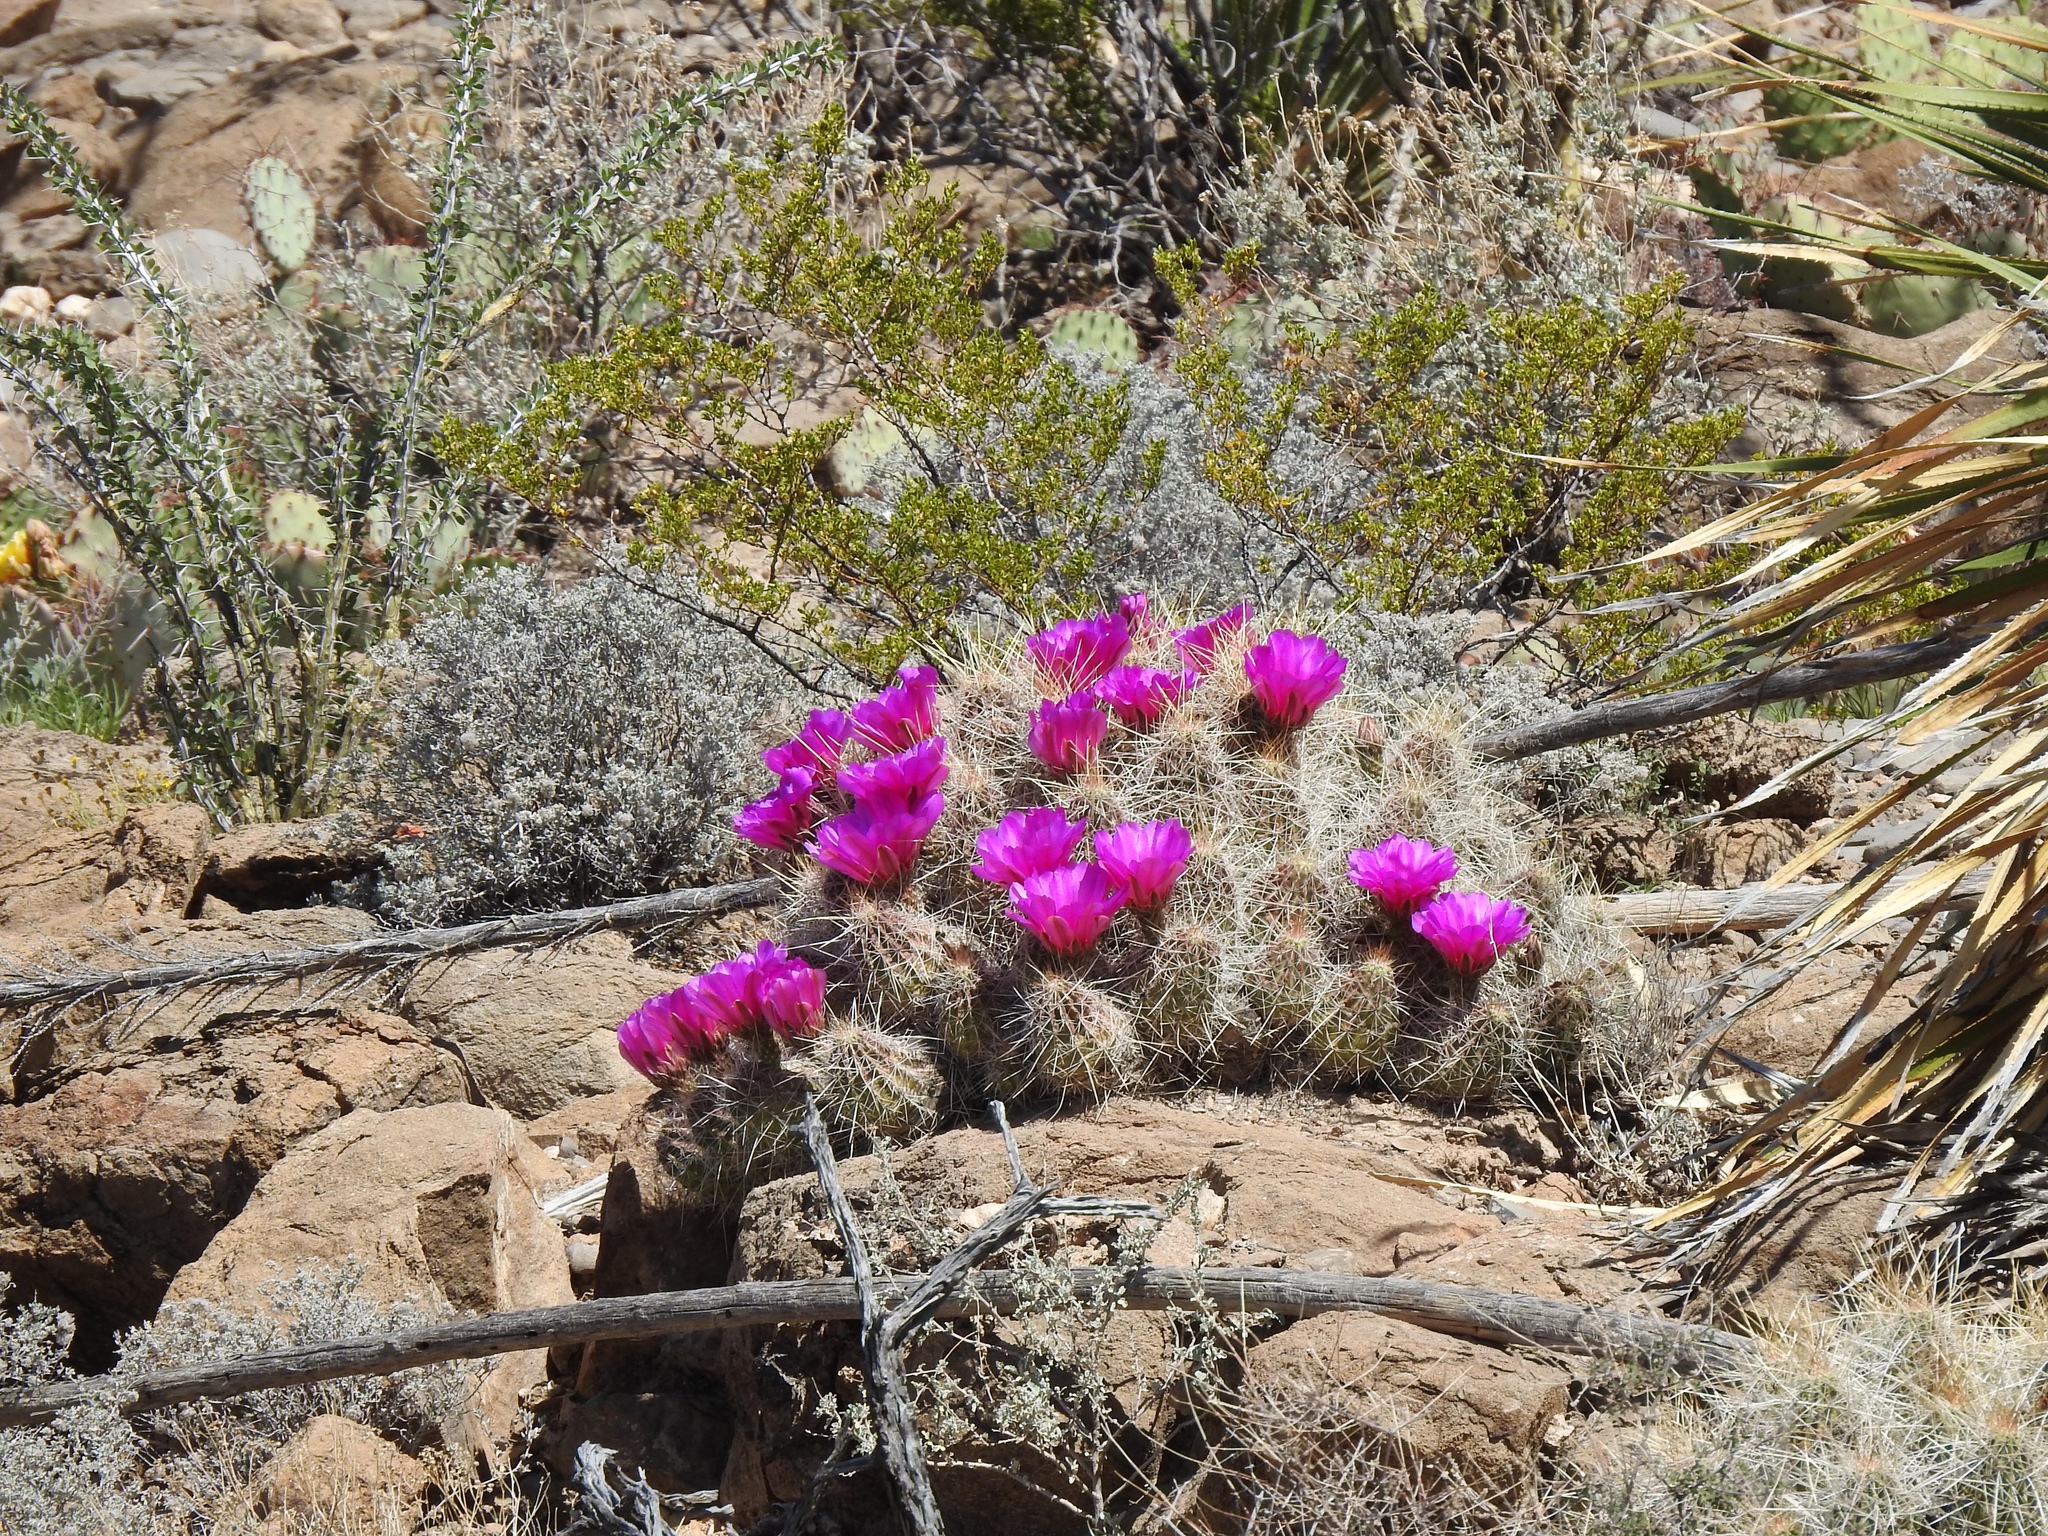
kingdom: Plantae
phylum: Tracheophyta
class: Magnoliopsida
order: Caryophyllales
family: Cactaceae
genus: Echinocereus
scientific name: Echinocereus stramineus
